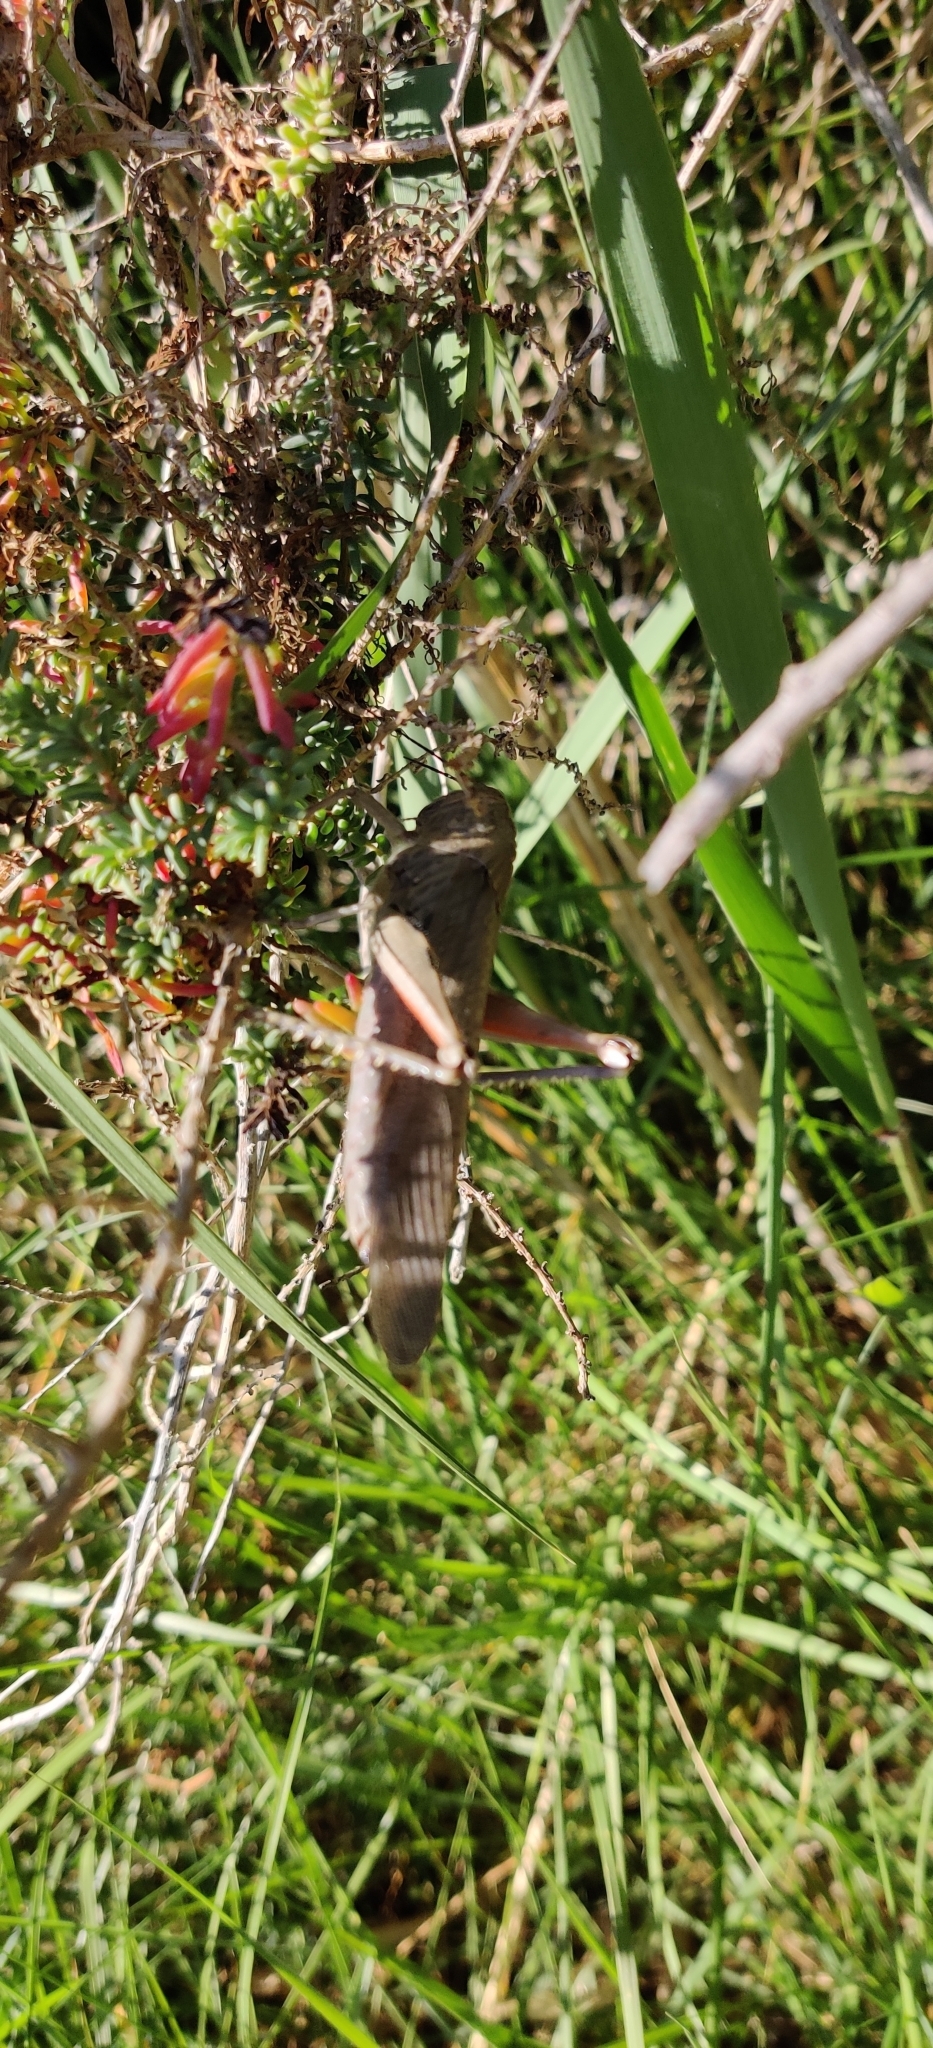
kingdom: Animalia
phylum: Arthropoda
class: Insecta
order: Orthoptera
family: Acrididae
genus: Anacridium
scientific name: Anacridium aegyptium
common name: Egyptian grasshopper
